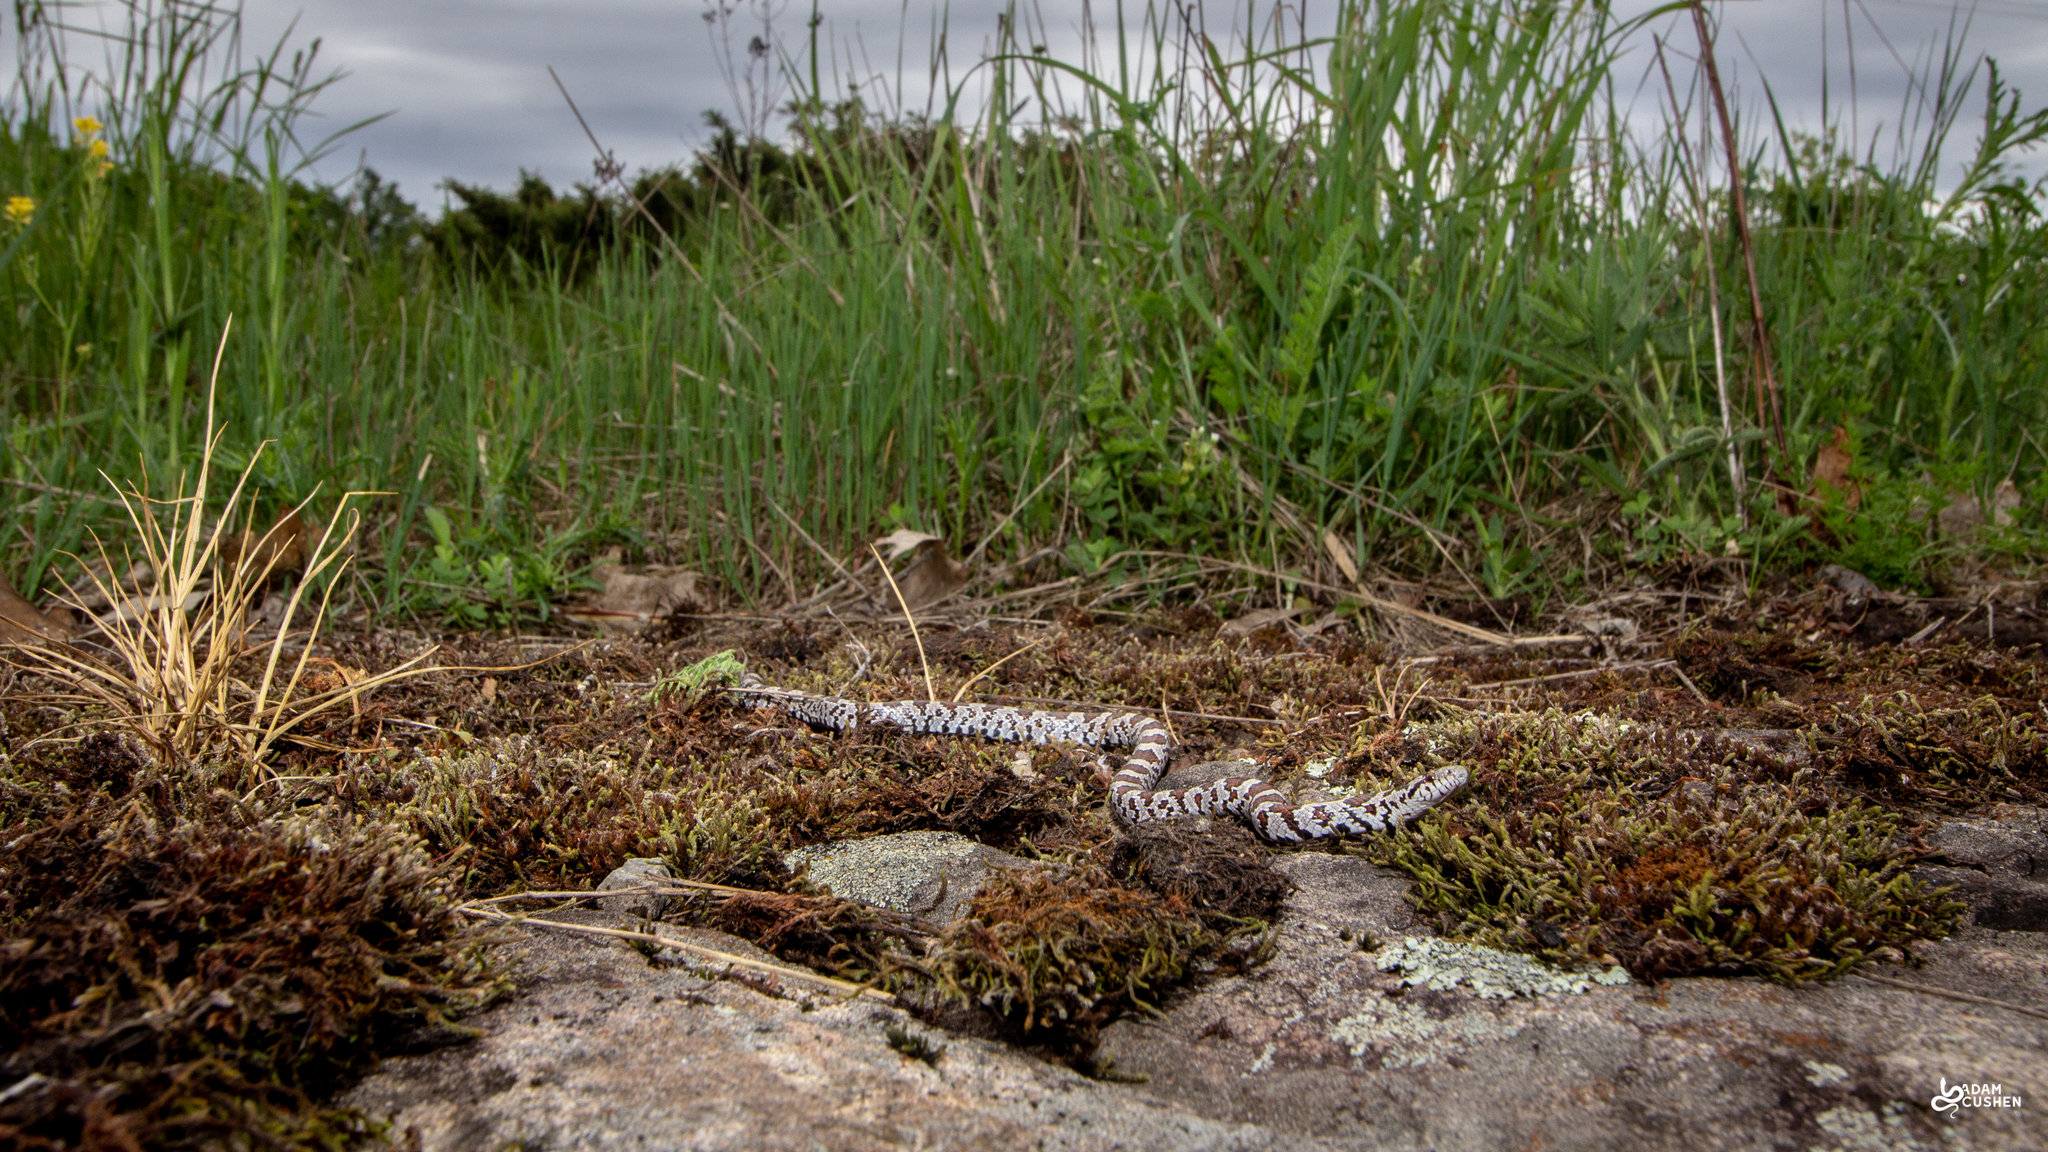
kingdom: Animalia
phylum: Chordata
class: Squamata
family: Colubridae
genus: Lampropeltis
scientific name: Lampropeltis triangulum
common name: Eastern milksnake
